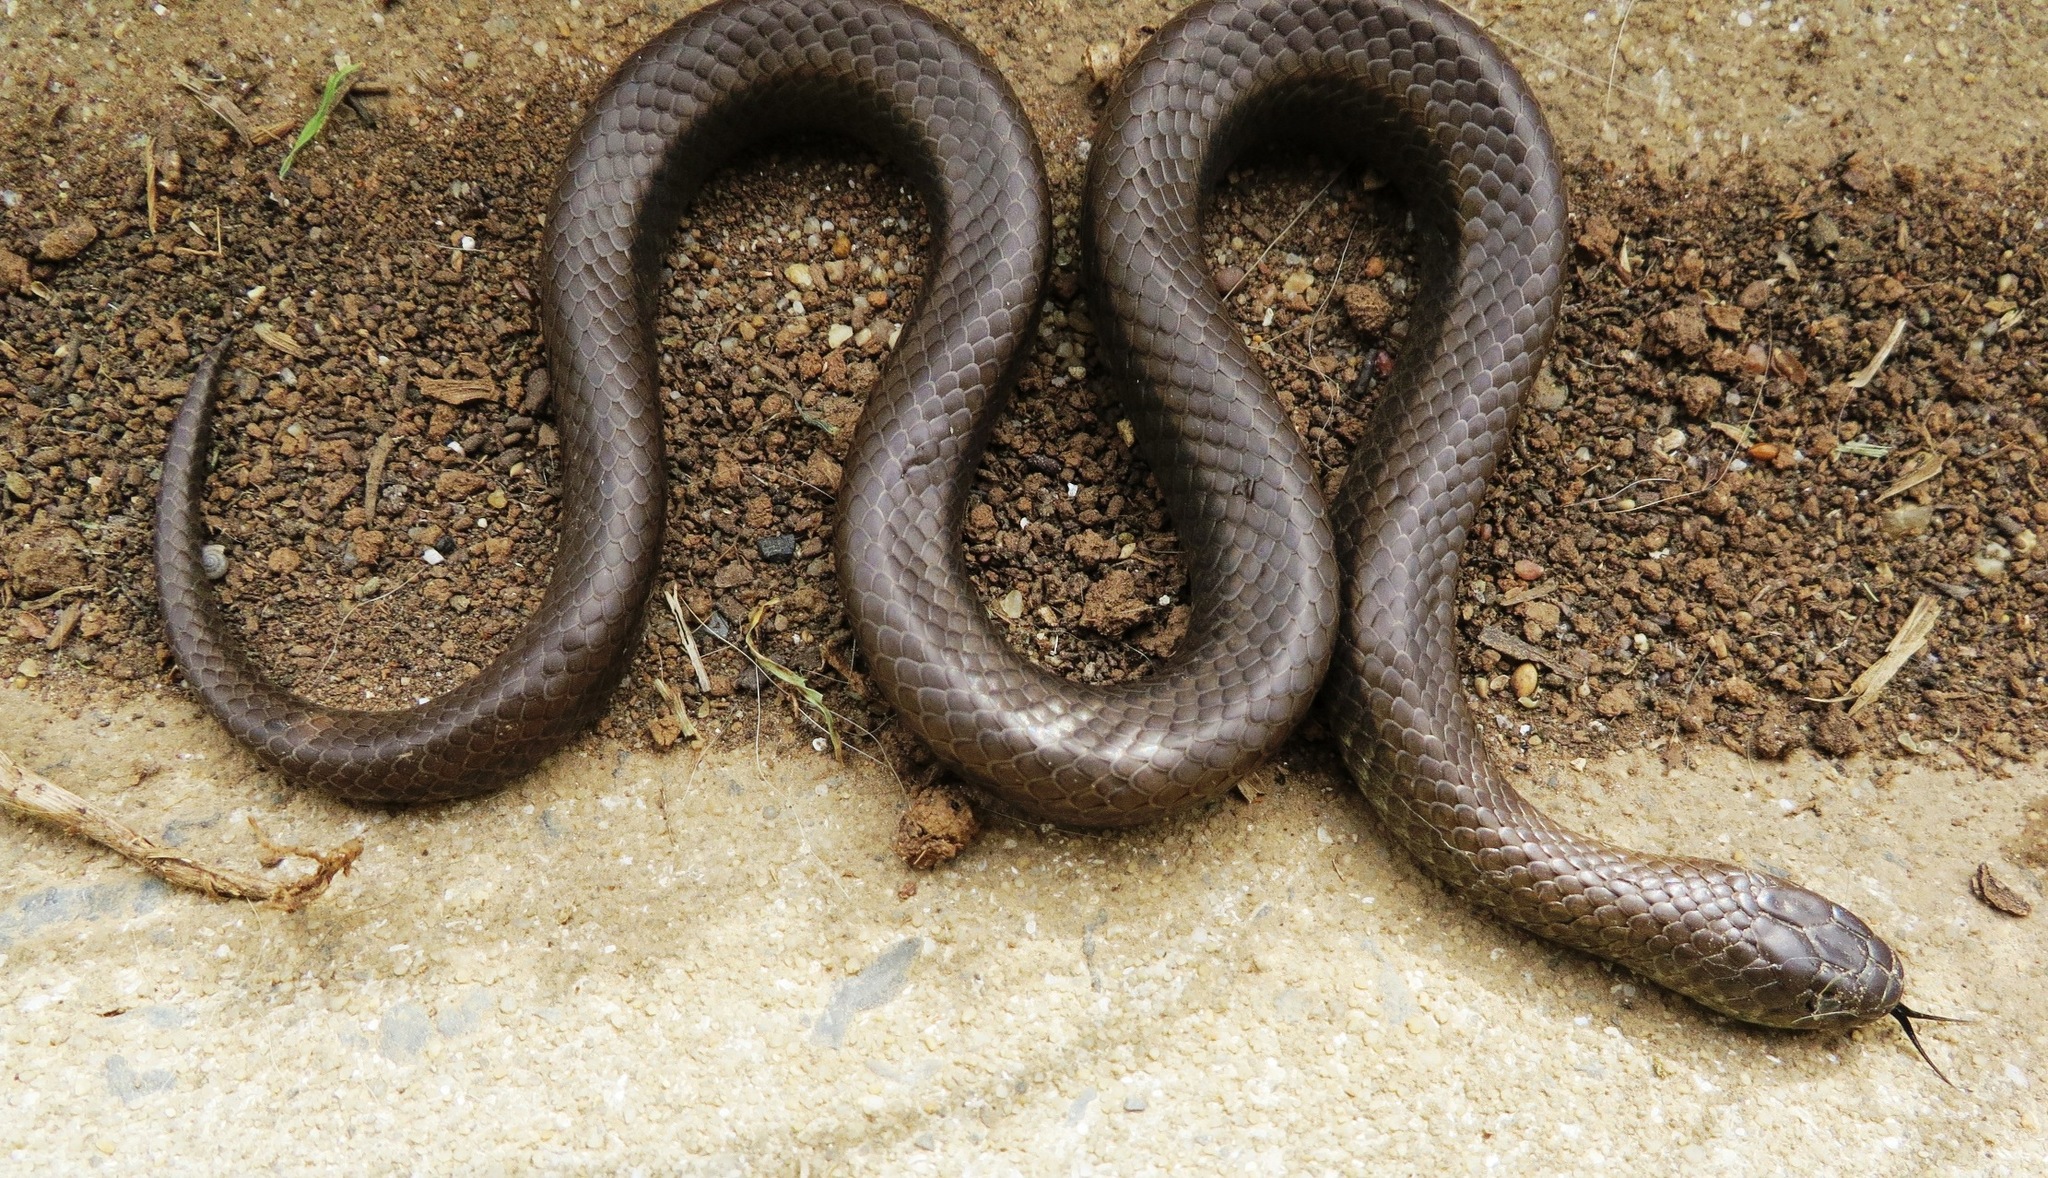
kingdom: Animalia
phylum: Chordata
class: Squamata
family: Pseudoxyrhophiidae
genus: Duberria
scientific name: Duberria lutrix
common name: Common slug eater
